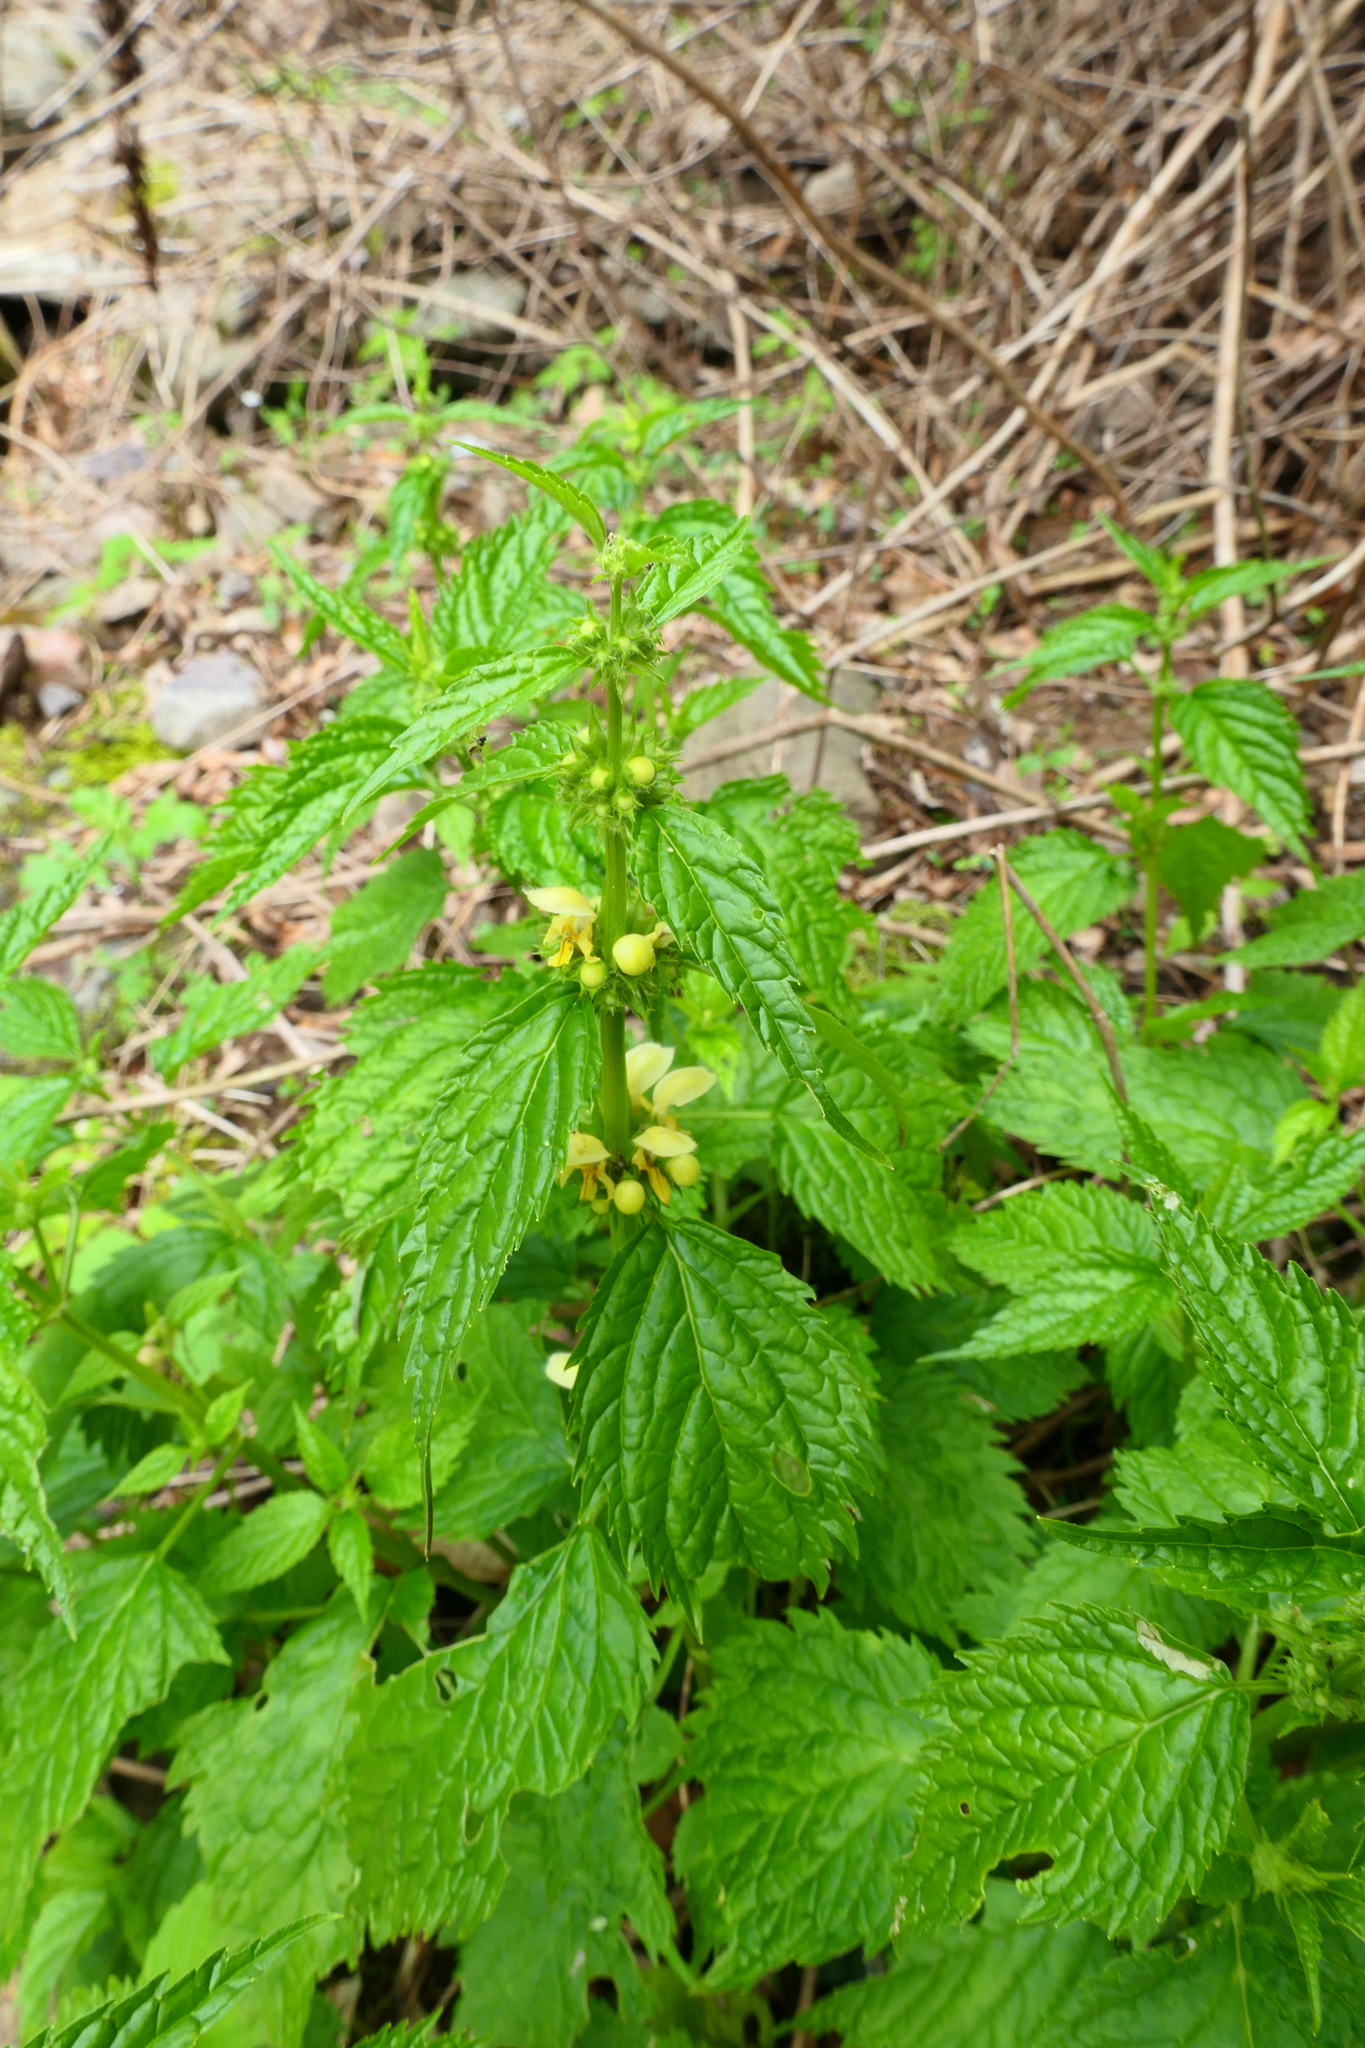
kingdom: Plantae
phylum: Tracheophyta
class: Magnoliopsida
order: Lamiales
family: Lamiaceae
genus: Lamium
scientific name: Lamium galeobdolon
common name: Yellow archangel
